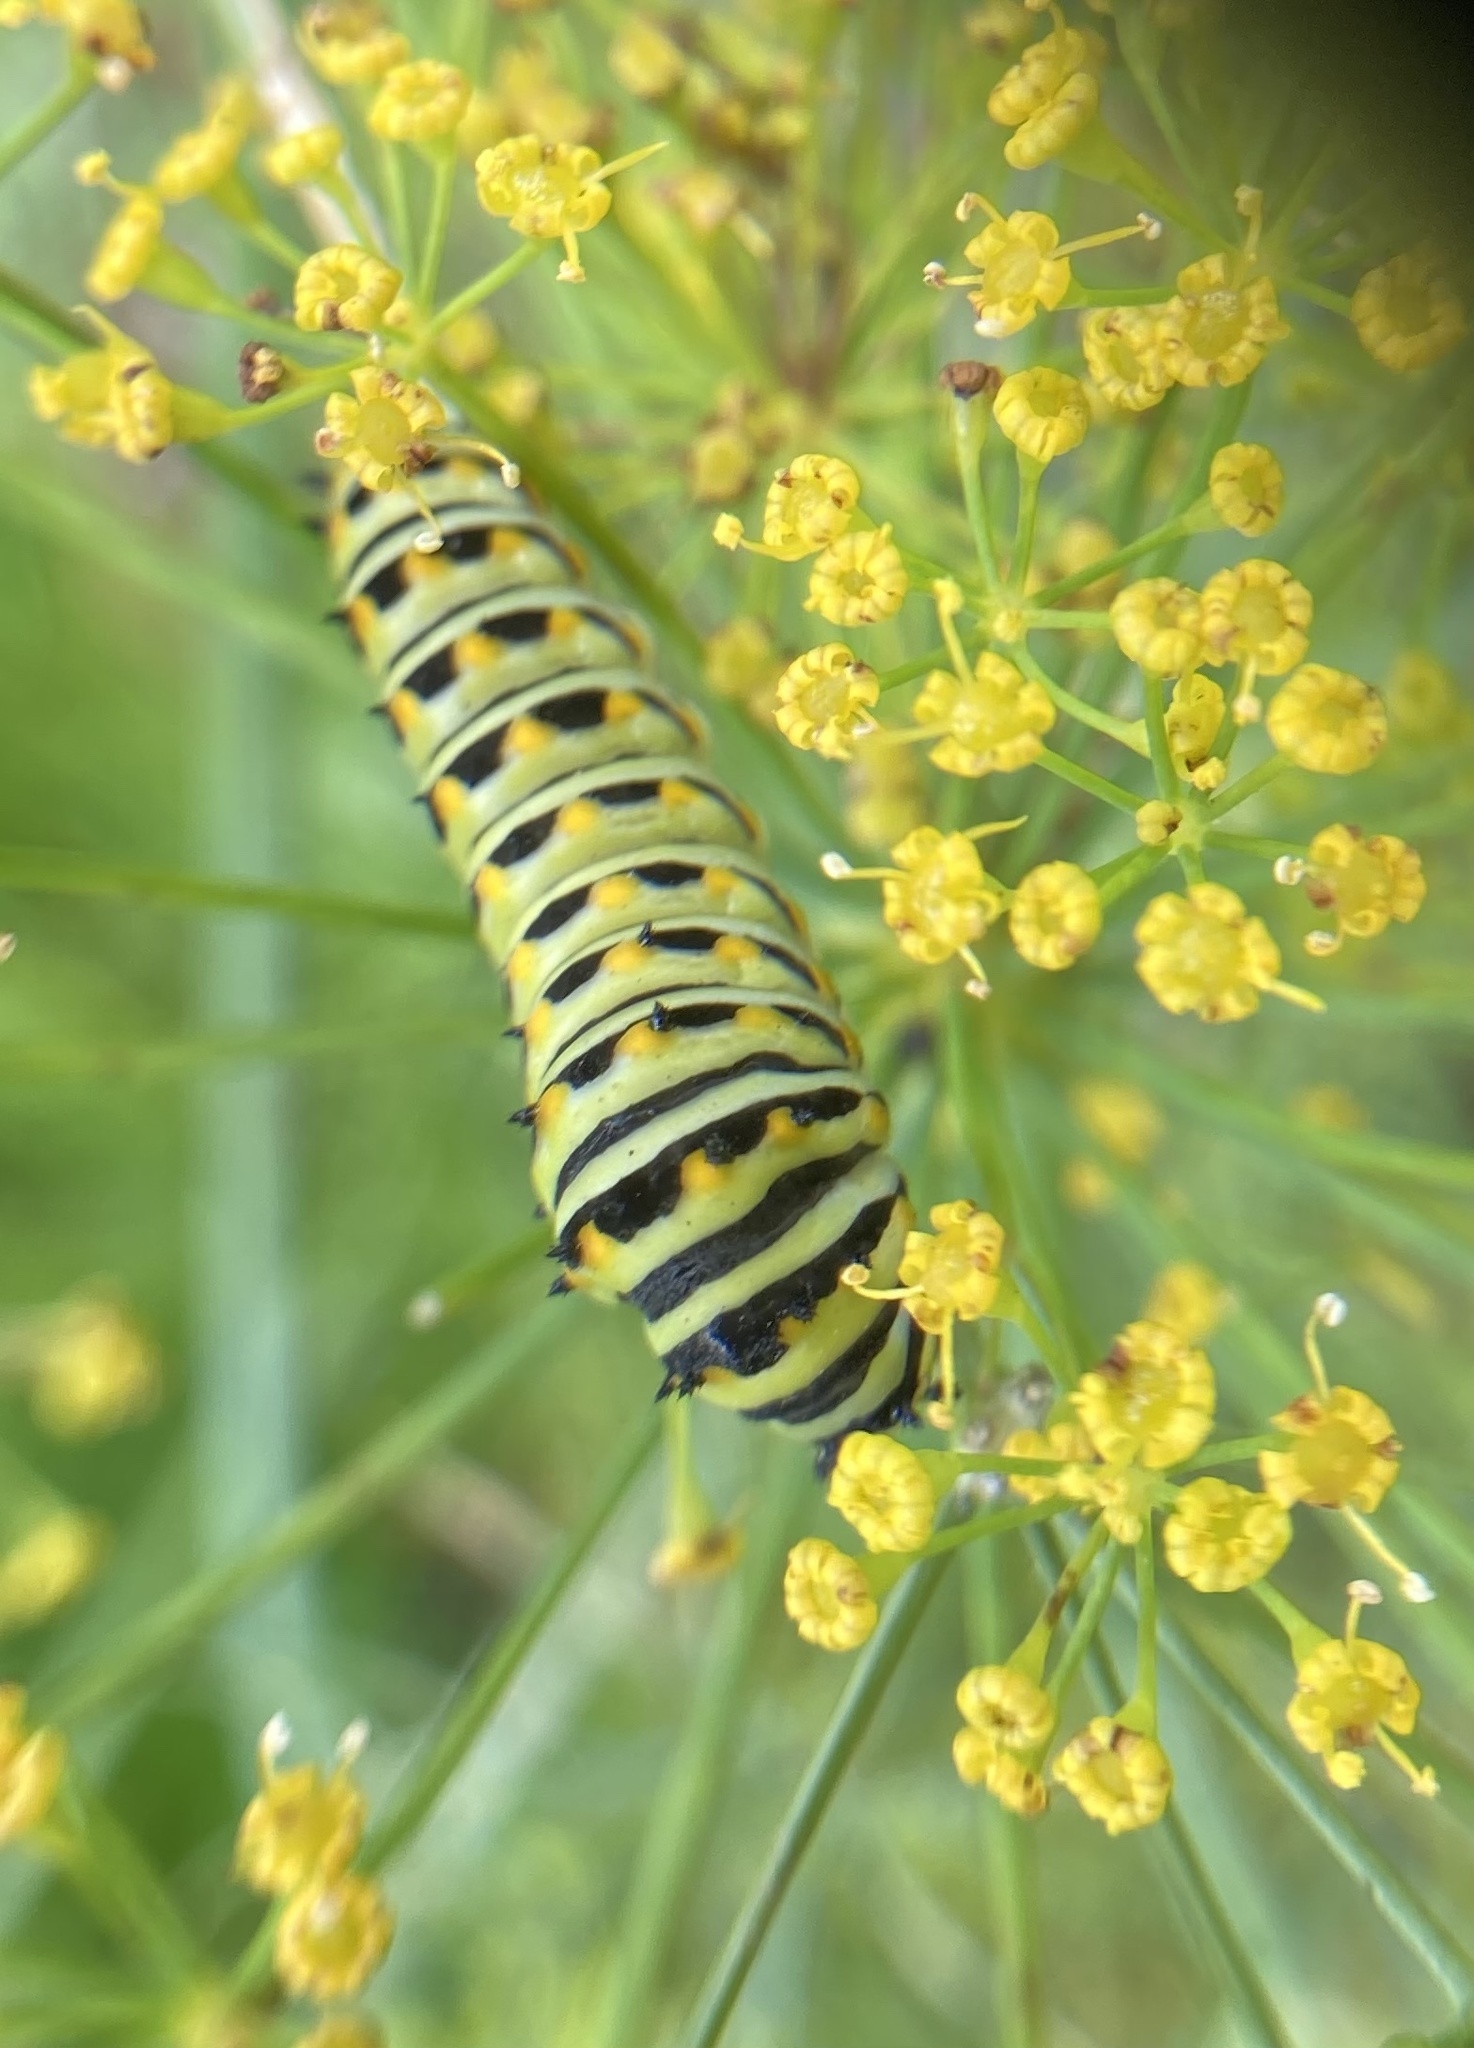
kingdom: Animalia
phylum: Arthropoda
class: Insecta
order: Lepidoptera
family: Papilionidae
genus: Papilio
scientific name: Papilio polyxenes
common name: Black swallowtail
